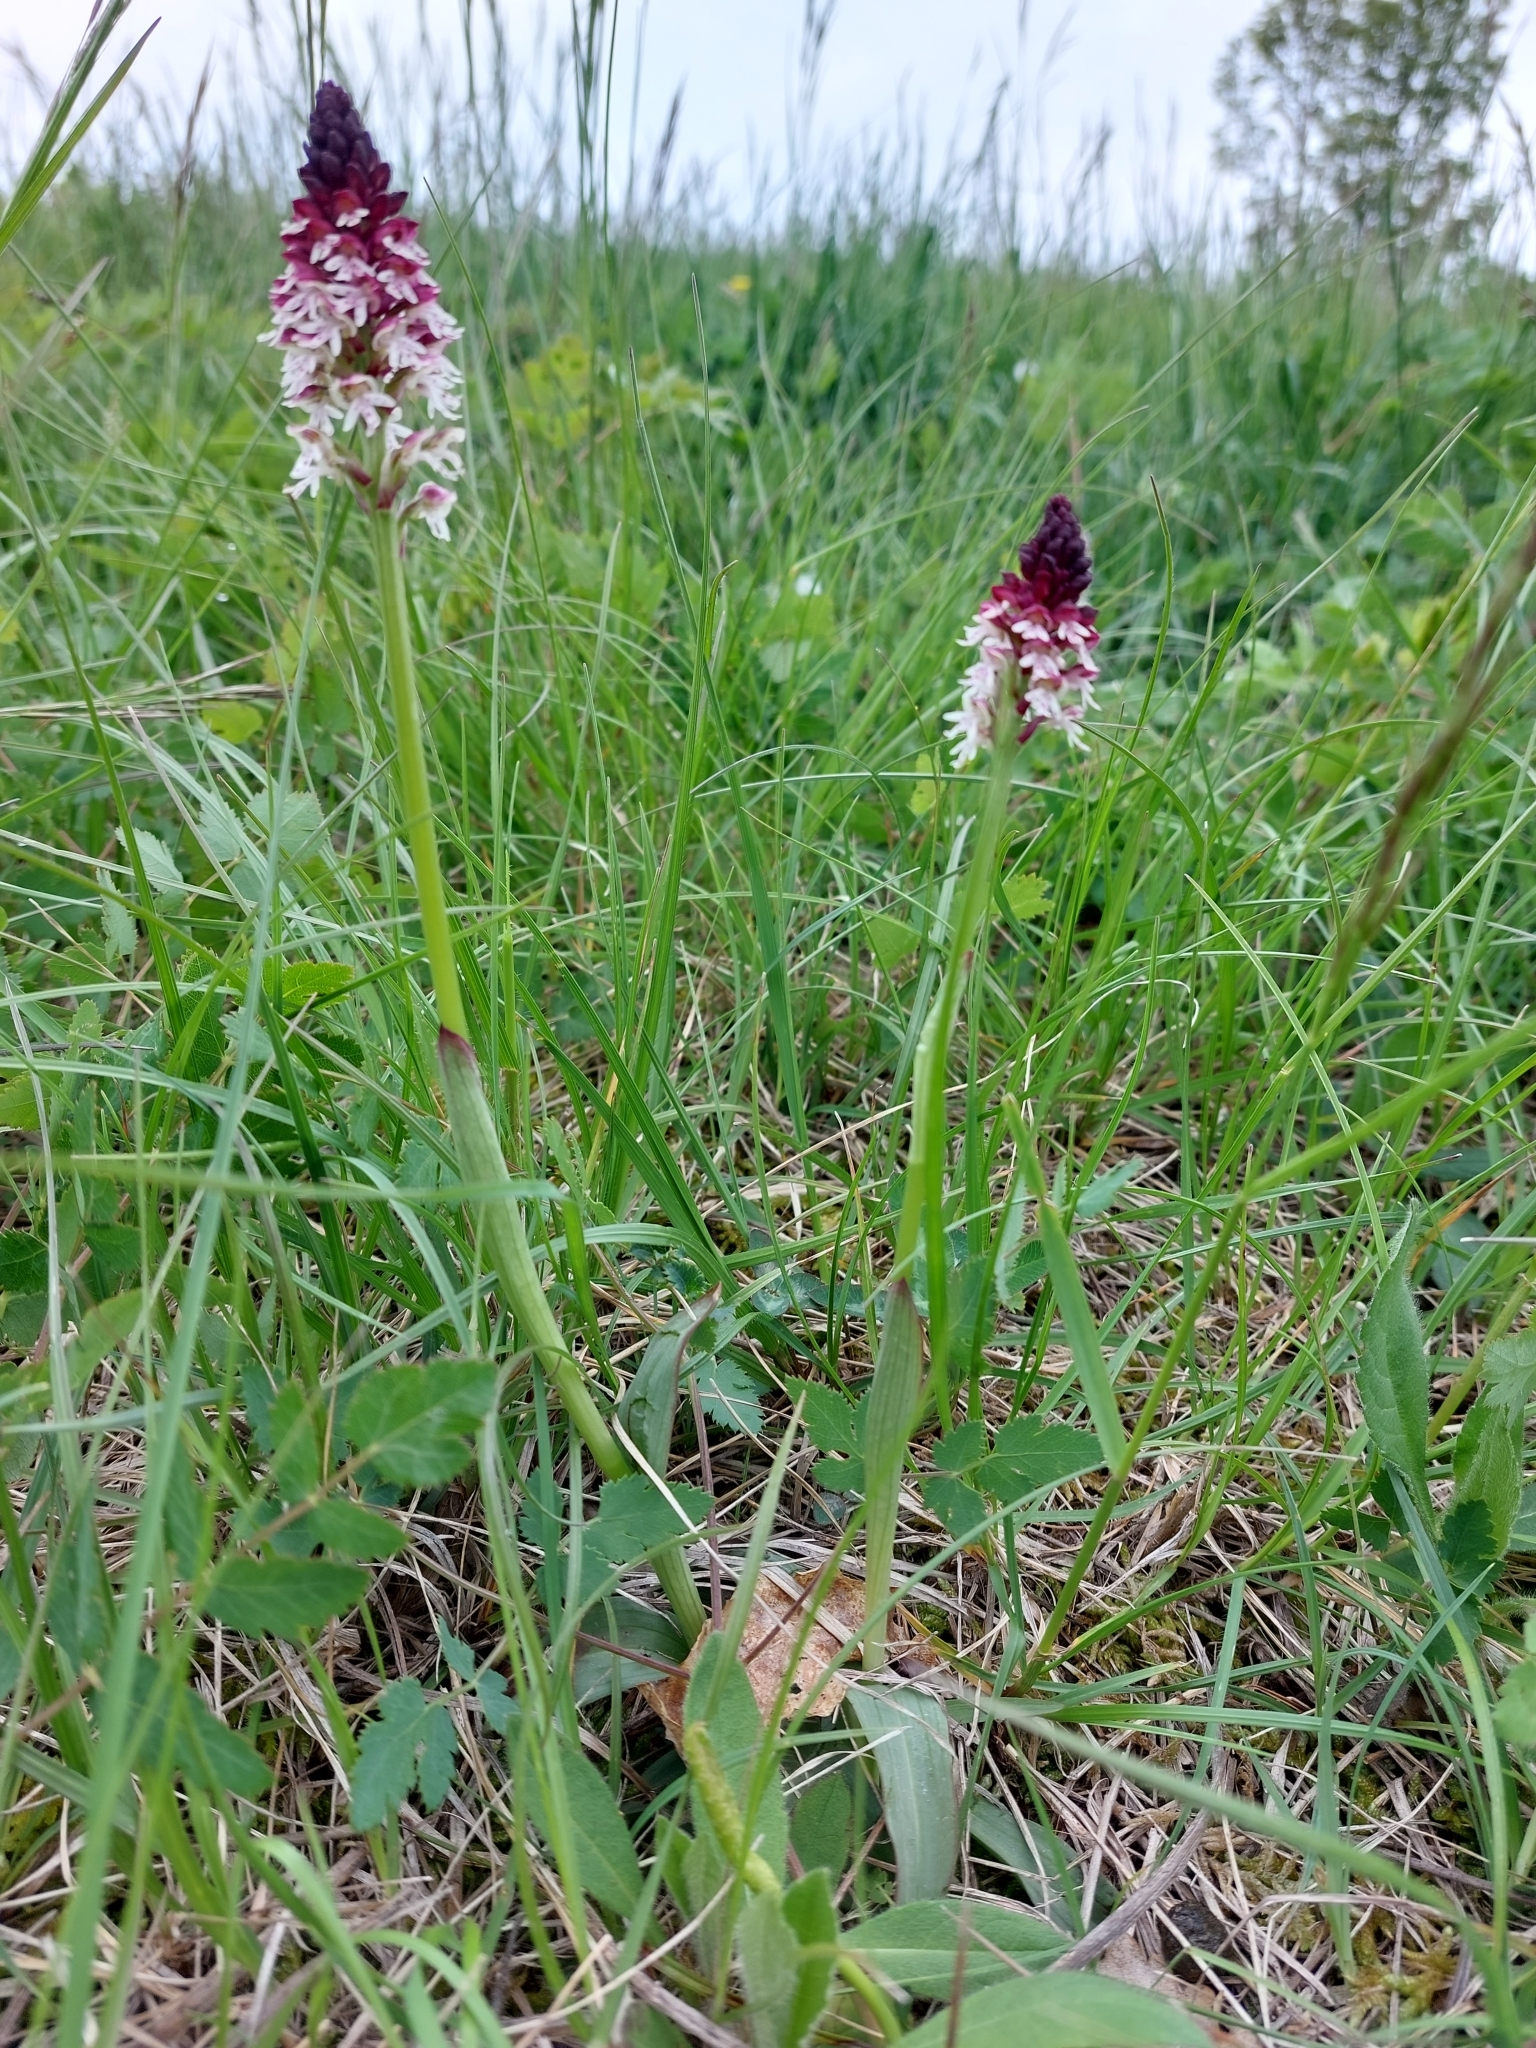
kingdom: Plantae
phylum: Tracheophyta
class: Liliopsida
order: Asparagales
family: Orchidaceae
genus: Neotinea
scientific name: Neotinea ustulata
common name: Burnt orchid
